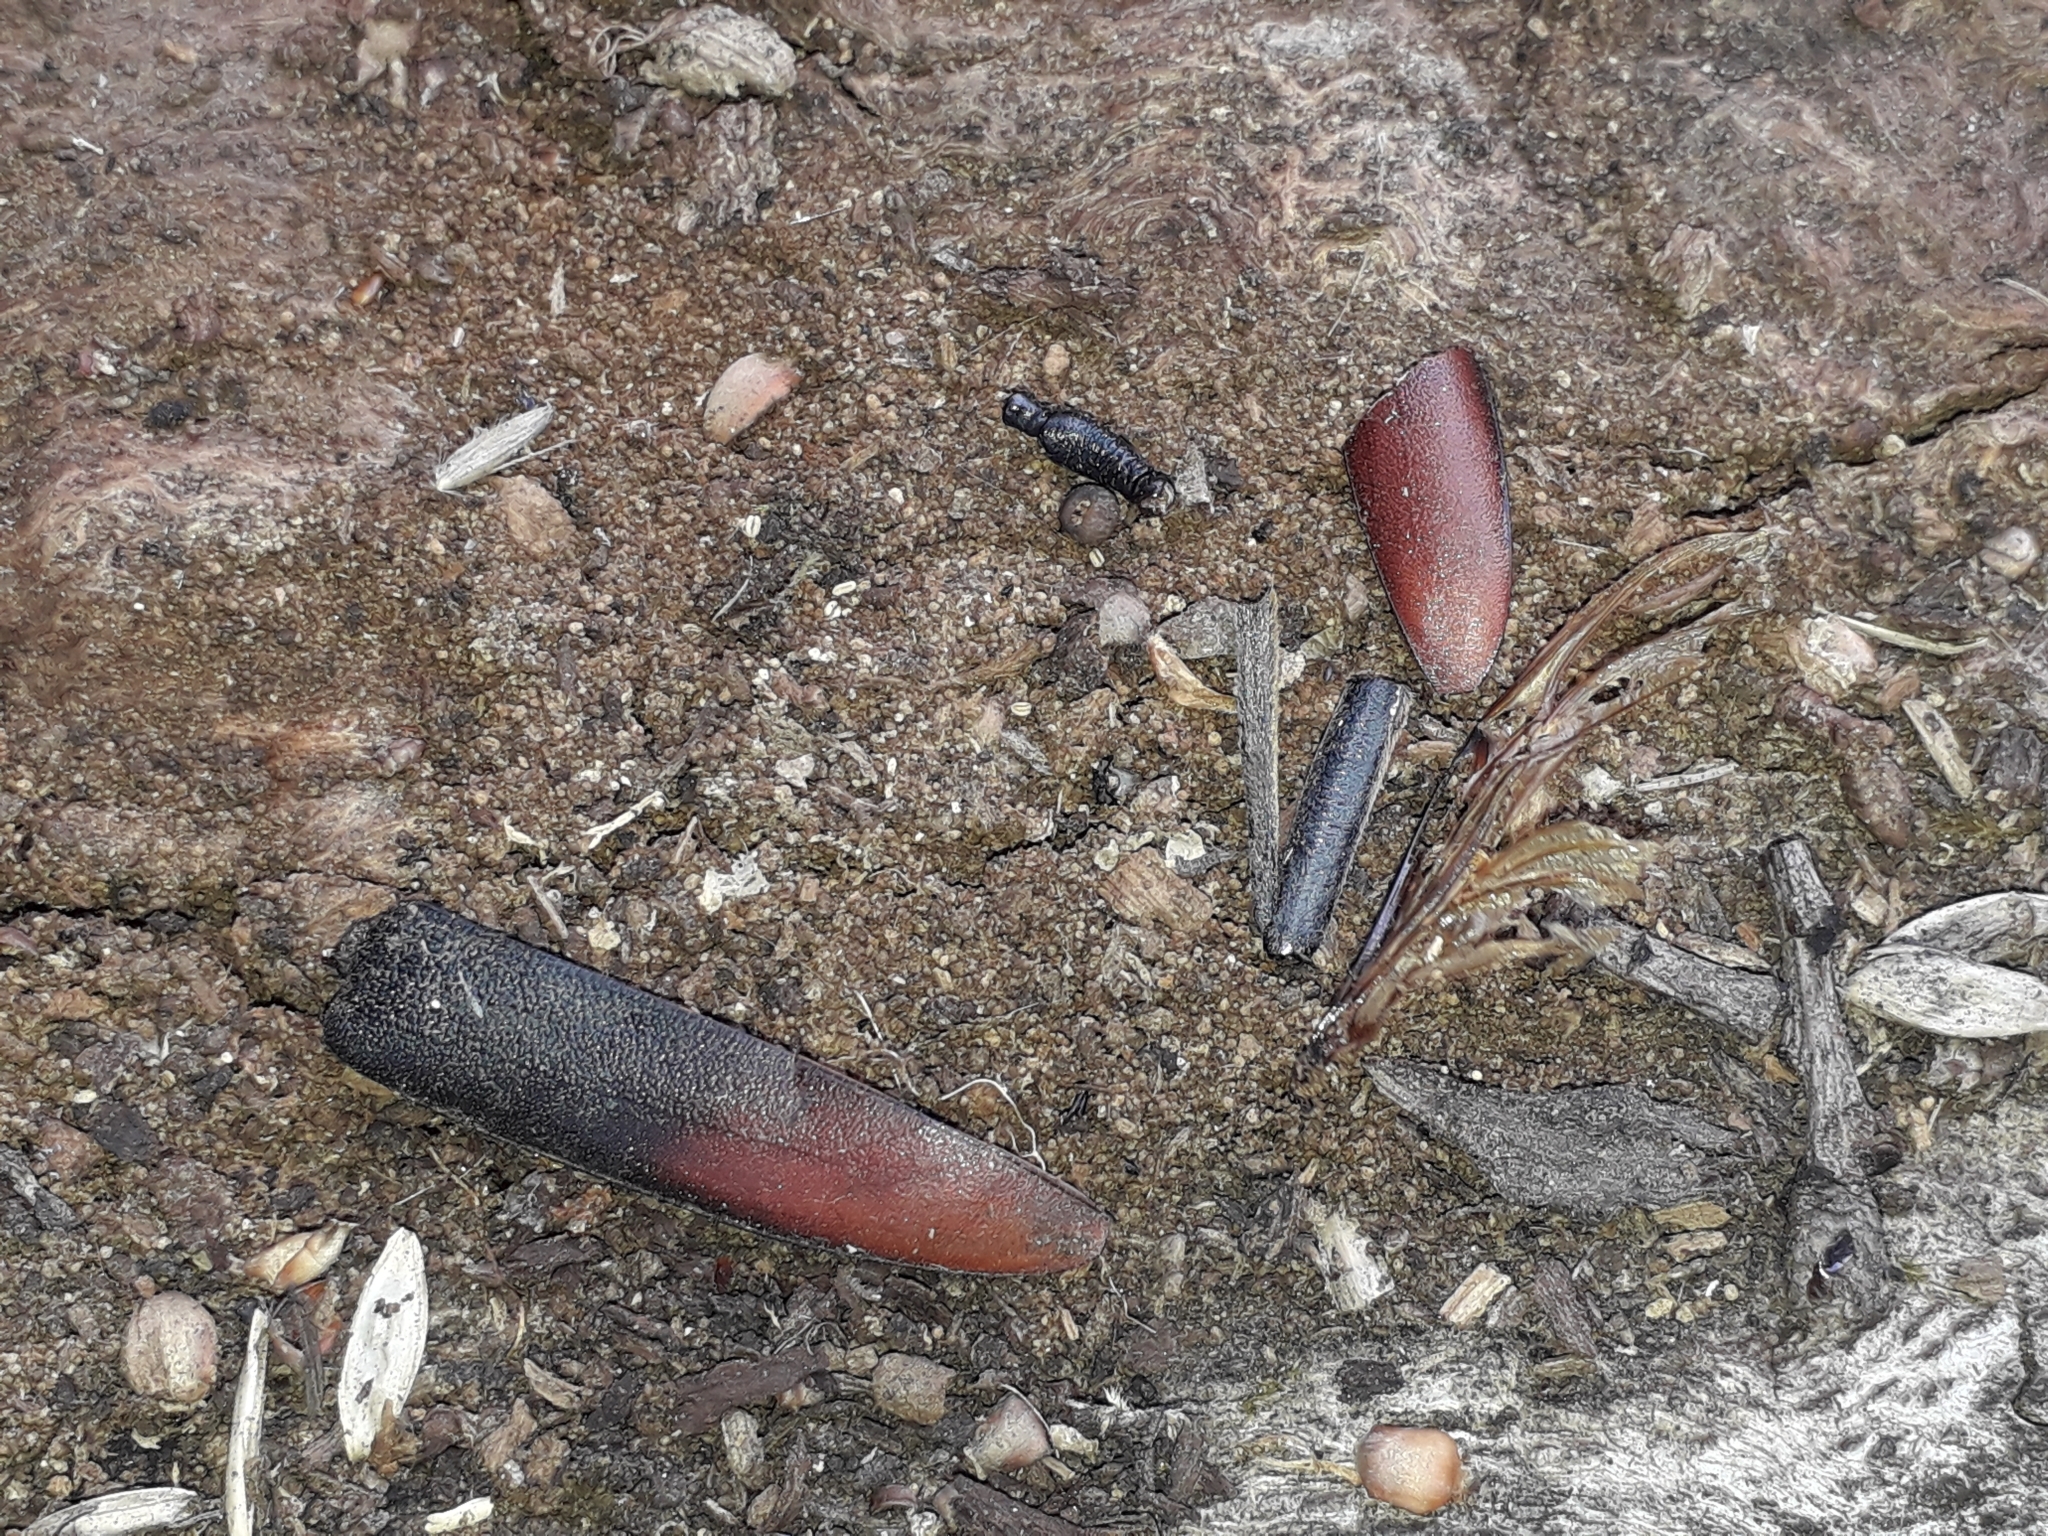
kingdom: Animalia
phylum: Arthropoda
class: Insecta
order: Coleoptera
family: Cerambycidae
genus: Cerambyx
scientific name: Cerambyx cerdo
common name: Cerambyx longicorn
